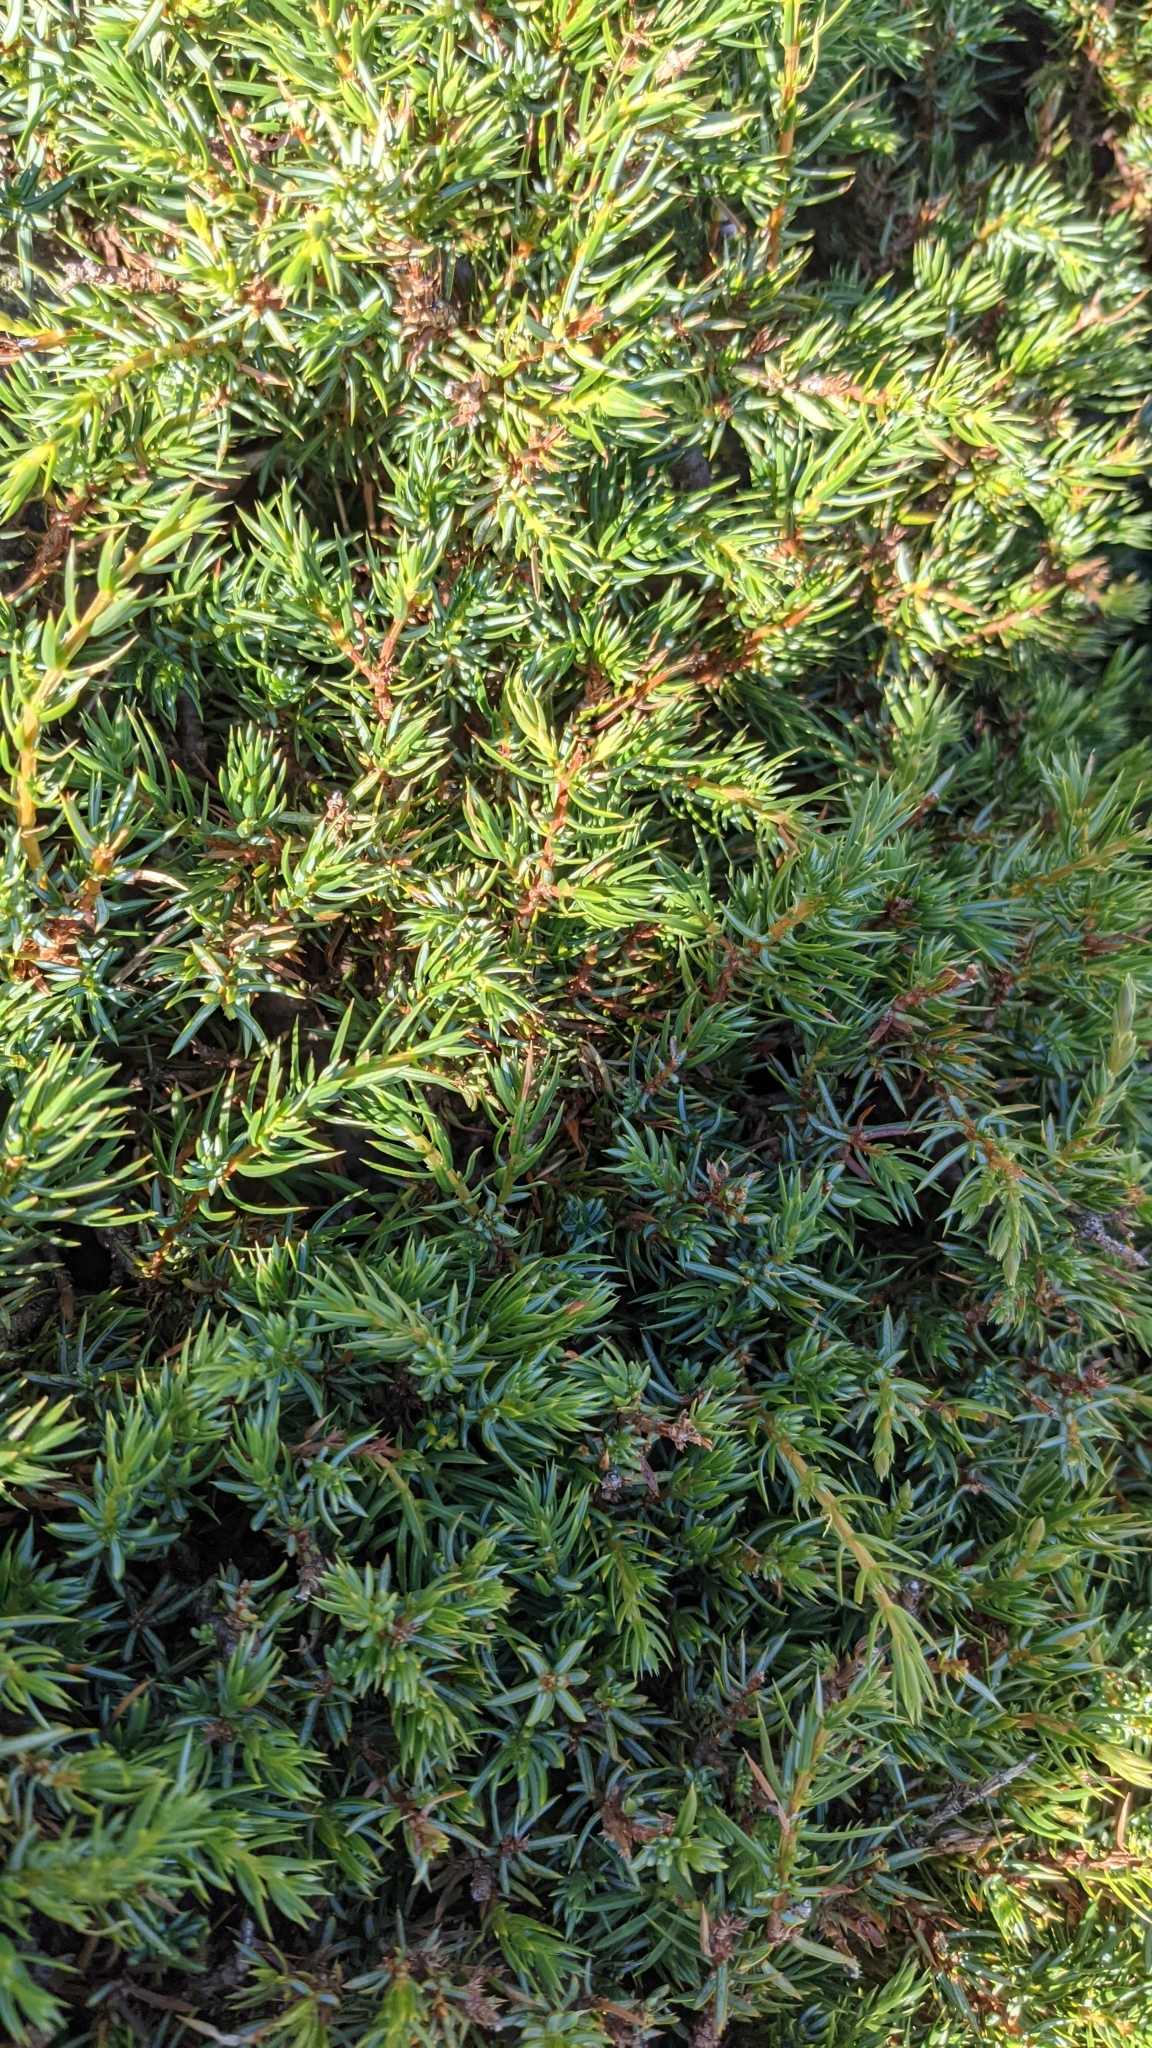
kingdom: Plantae
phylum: Tracheophyta
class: Pinopsida
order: Pinales
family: Cupressaceae
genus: Juniperus
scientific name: Juniperus communis
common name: Common juniper
